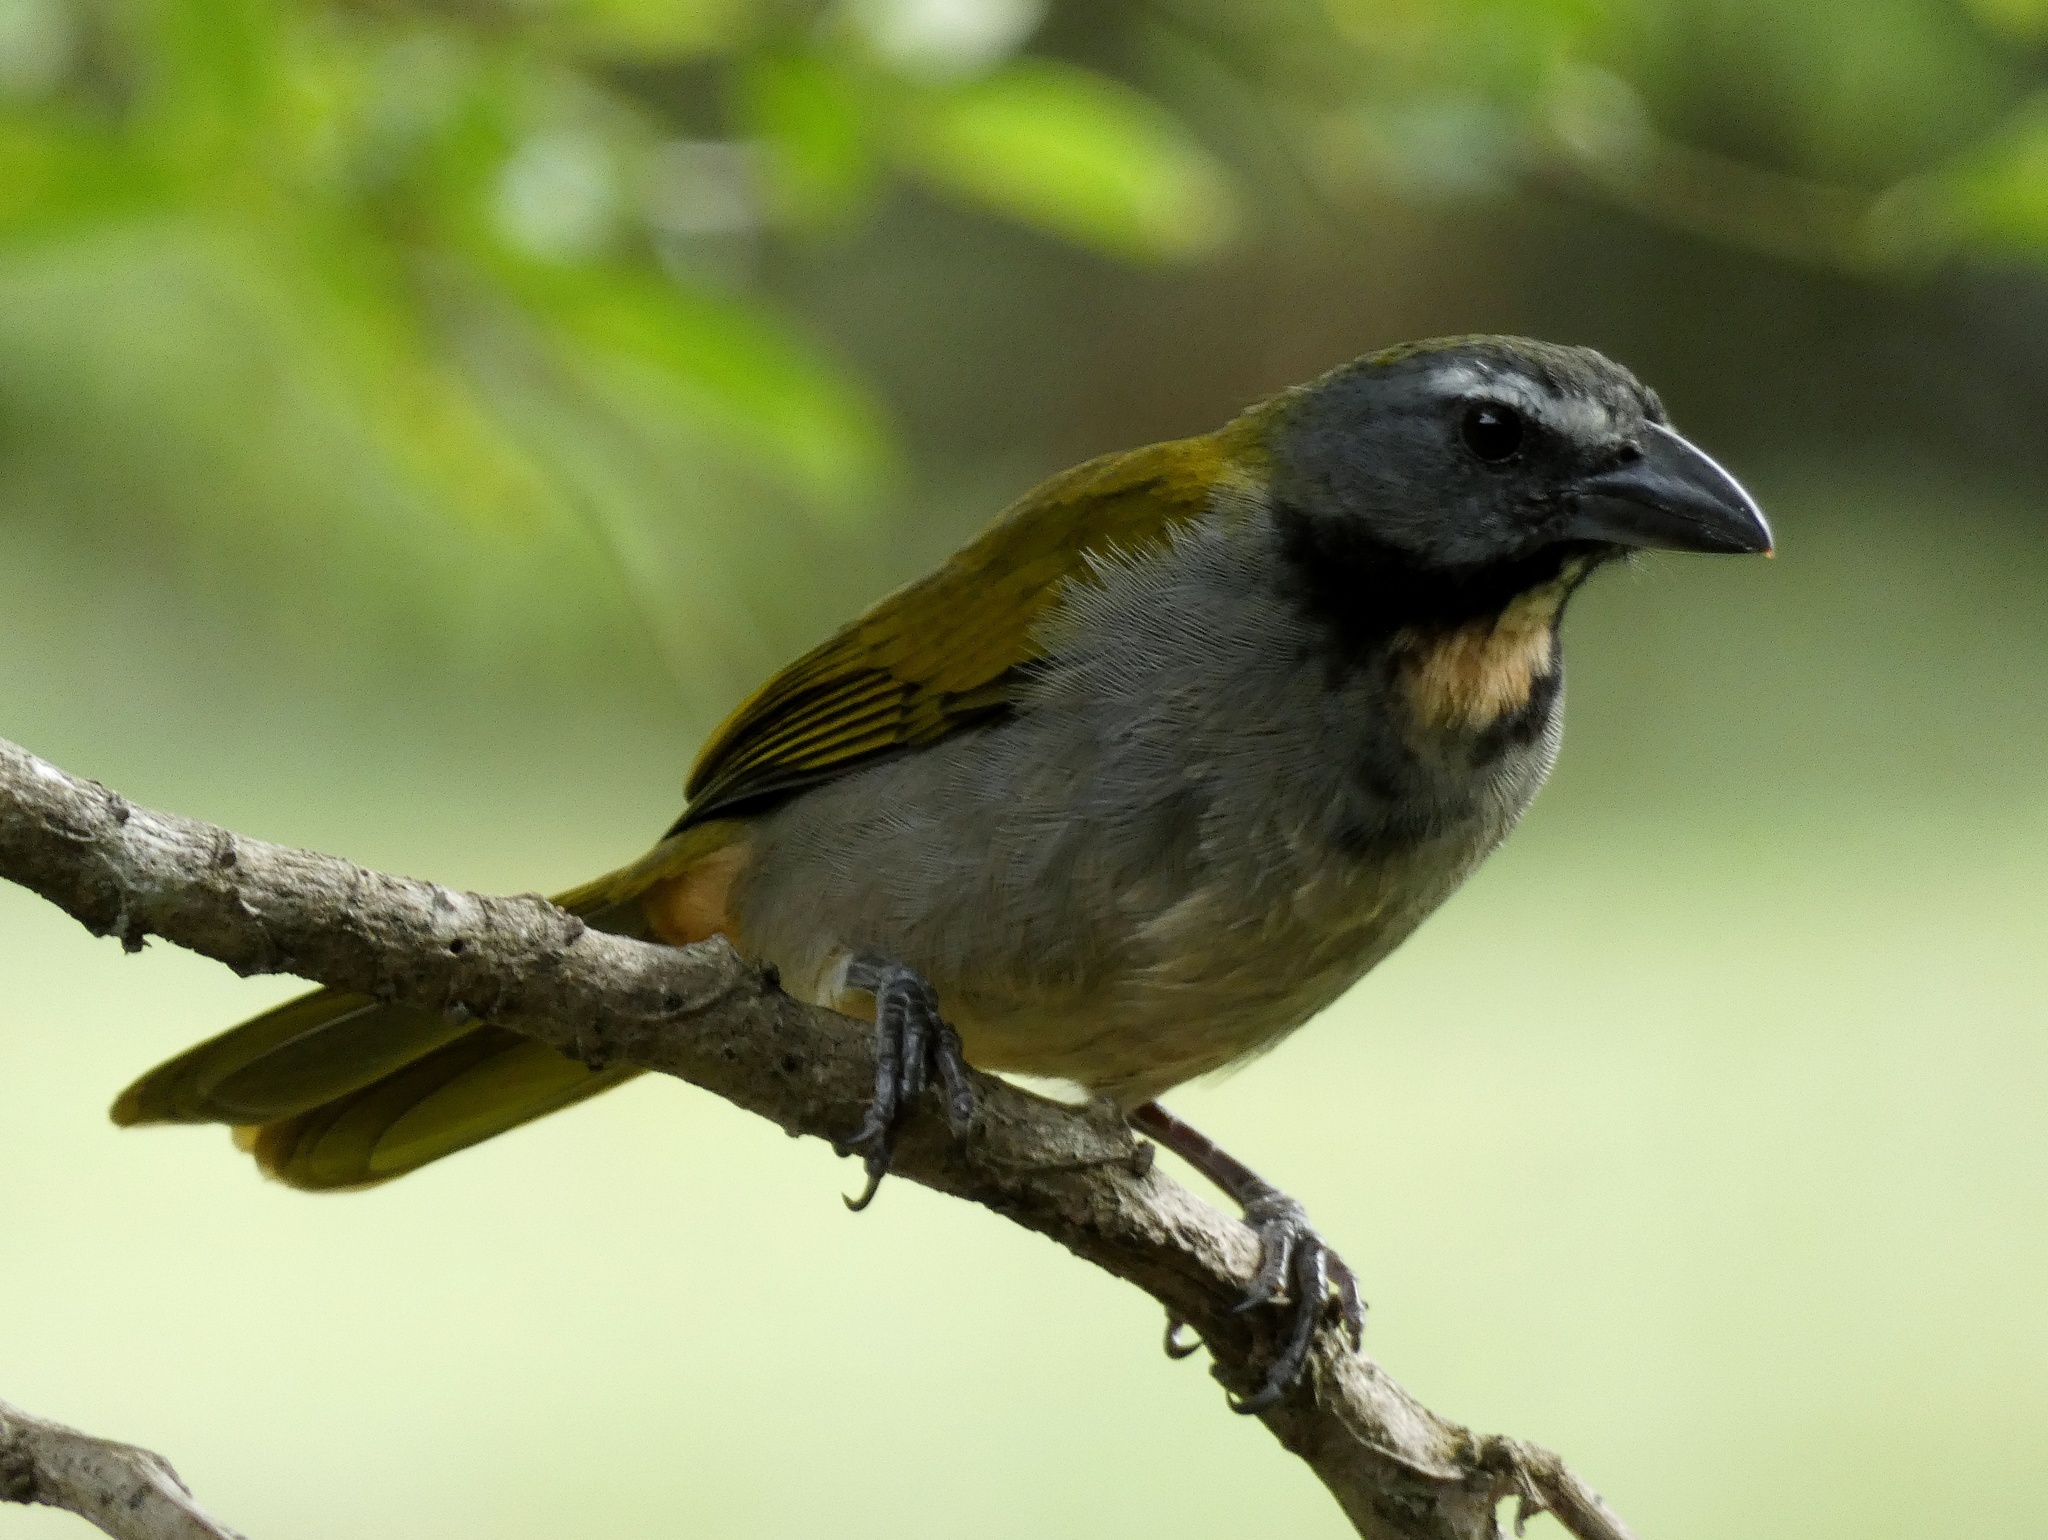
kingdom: Animalia
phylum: Chordata
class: Aves
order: Passeriformes
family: Thraupidae
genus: Saltator
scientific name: Saltator maximus
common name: Buff-throated saltator
